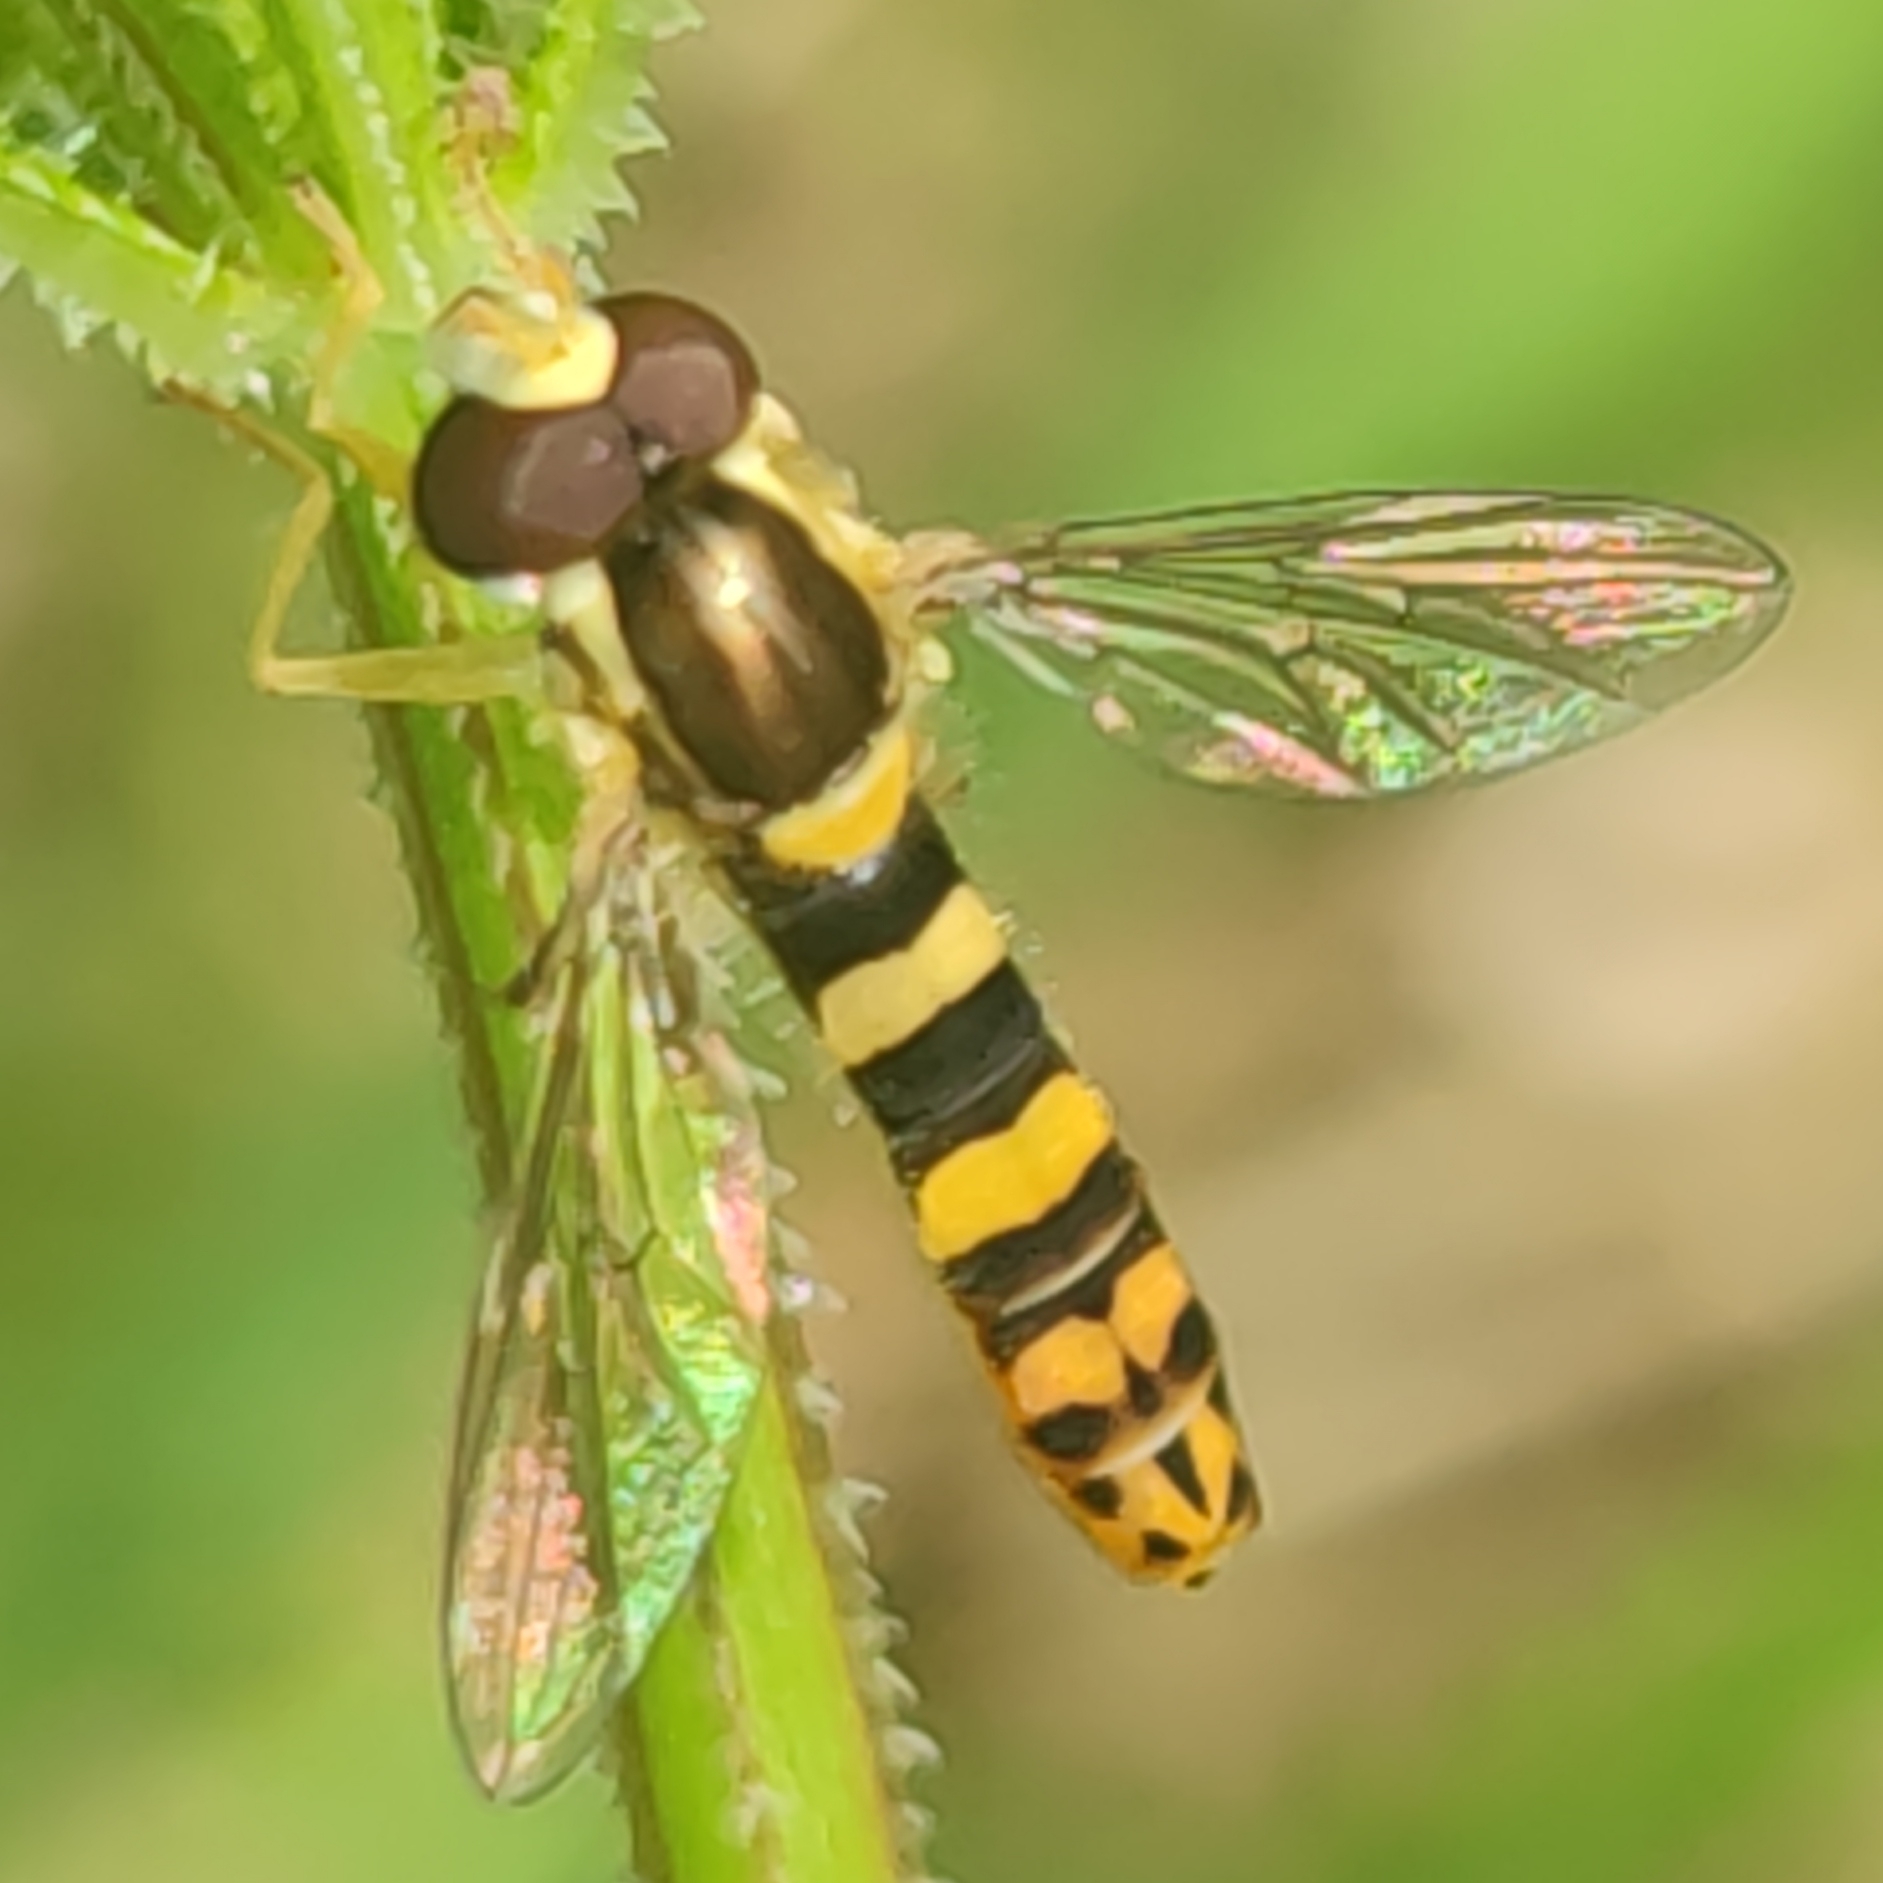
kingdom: Animalia
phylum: Arthropoda
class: Insecta
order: Diptera
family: Syrphidae
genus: Sphaerophoria
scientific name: Sphaerophoria scripta
